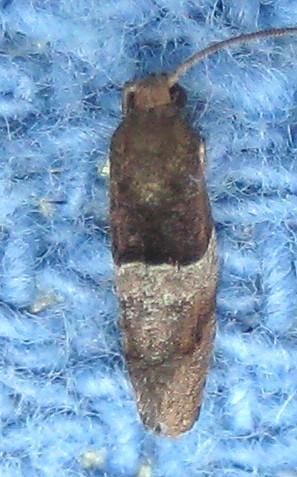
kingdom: Animalia
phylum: Arthropoda
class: Insecta
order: Lepidoptera
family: Tortricidae
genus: Larisa
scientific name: Larisa subsolana
